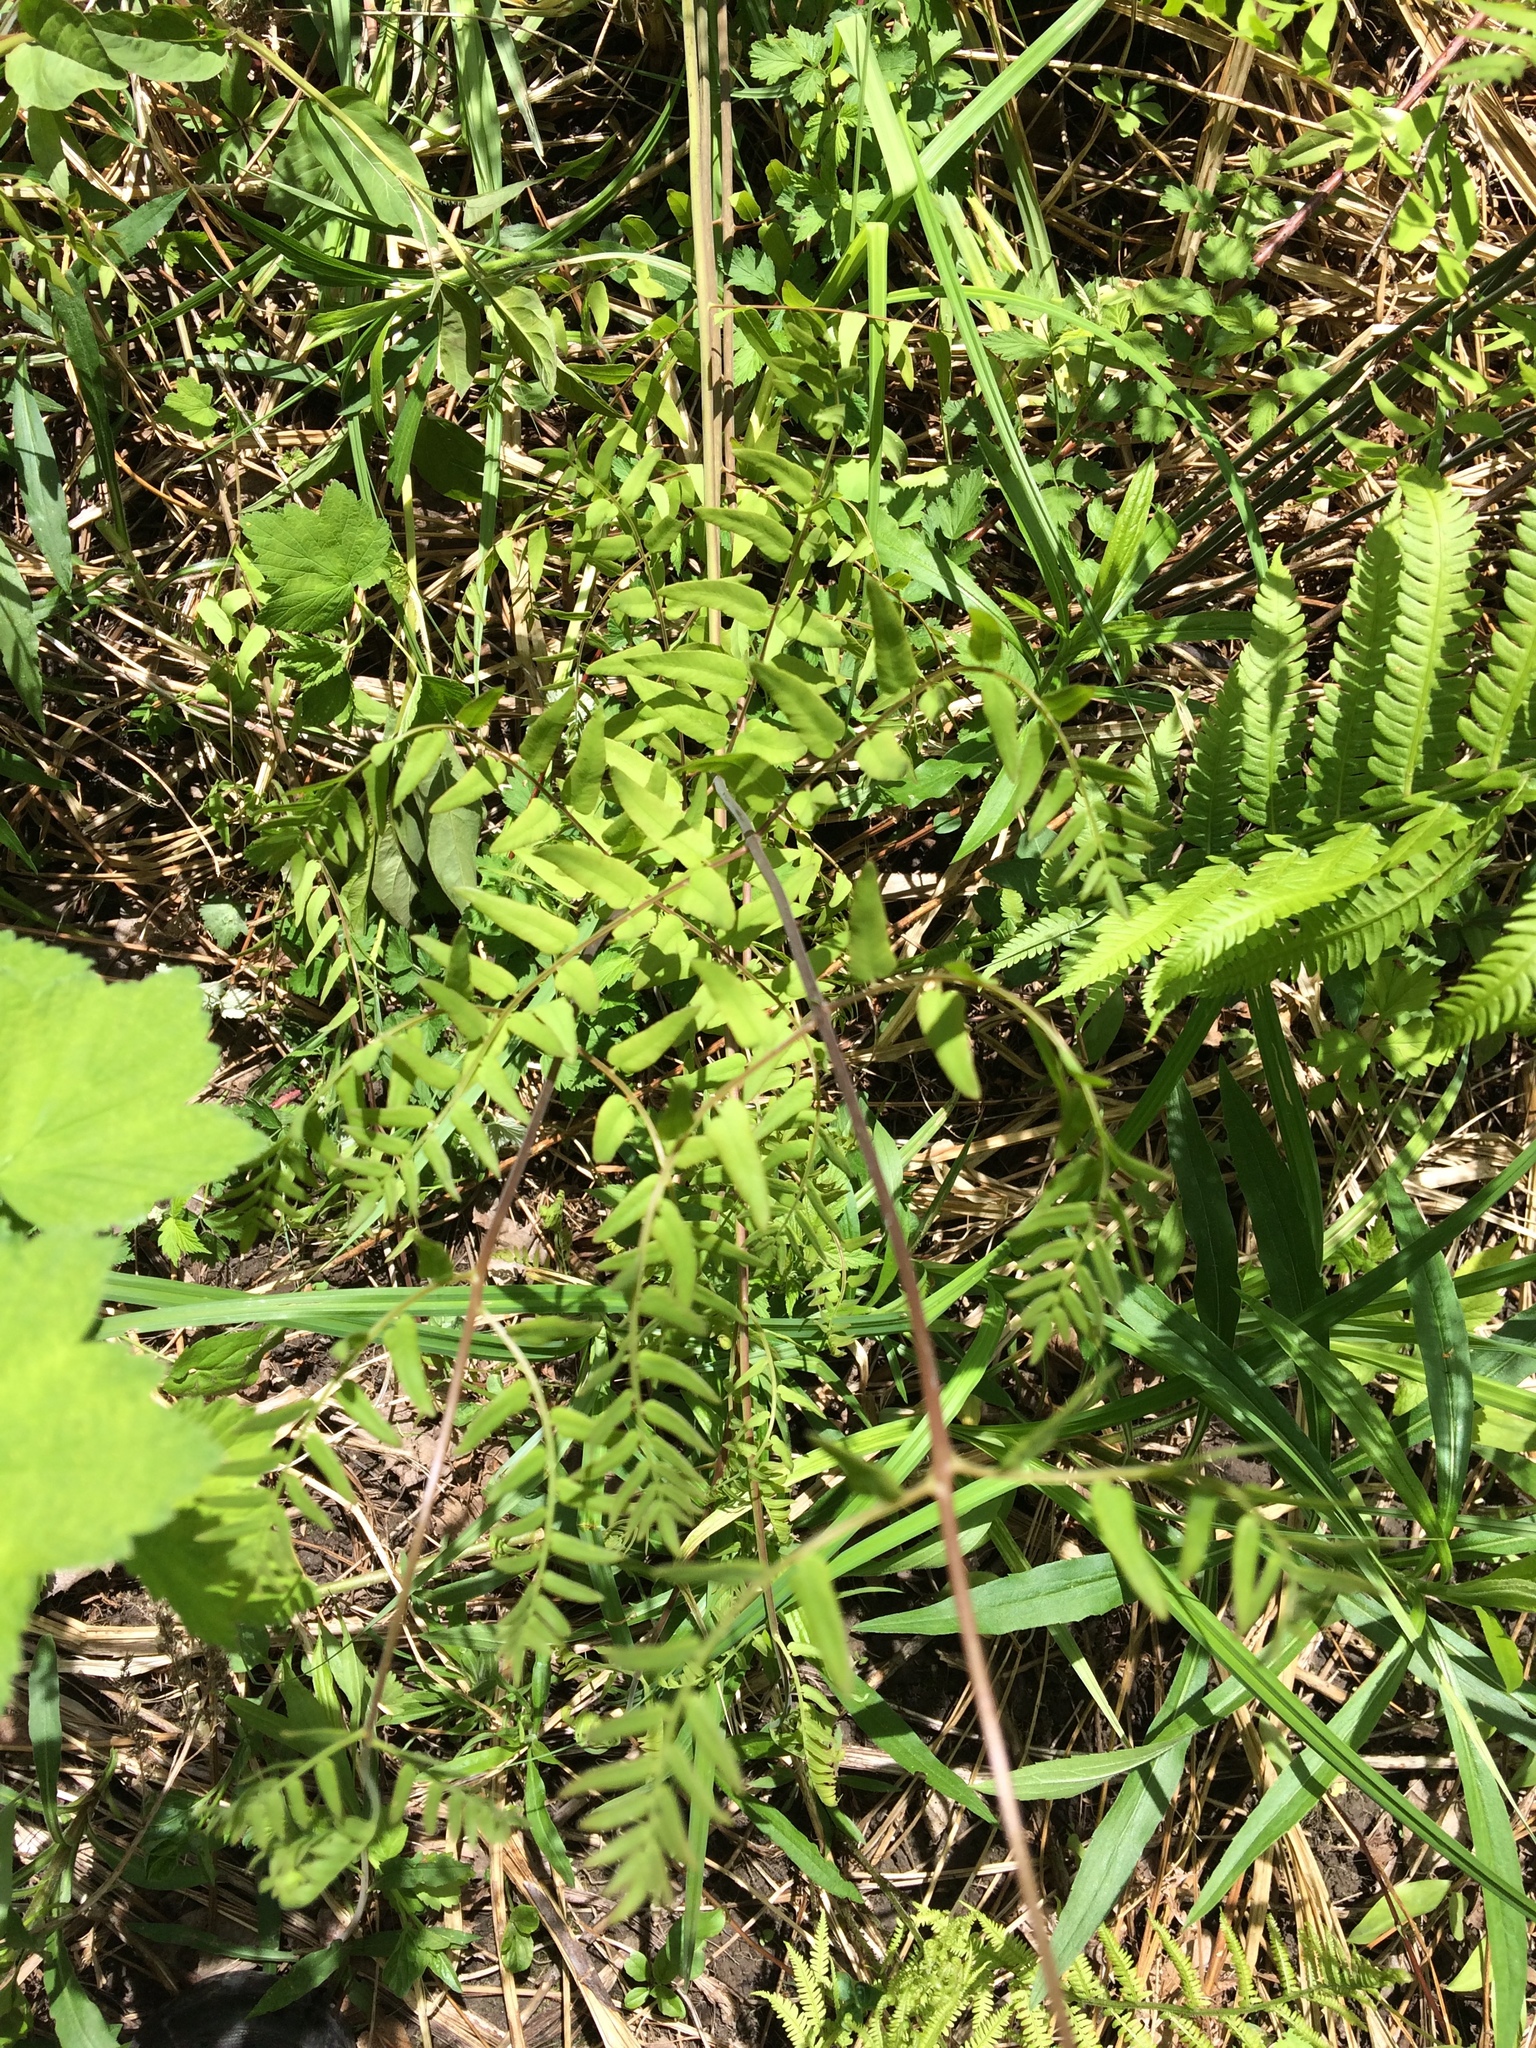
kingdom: Plantae
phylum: Tracheophyta
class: Polypodiopsida
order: Osmundales
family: Osmundaceae
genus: Osmunda
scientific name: Osmunda spectabilis
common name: American royal fern
